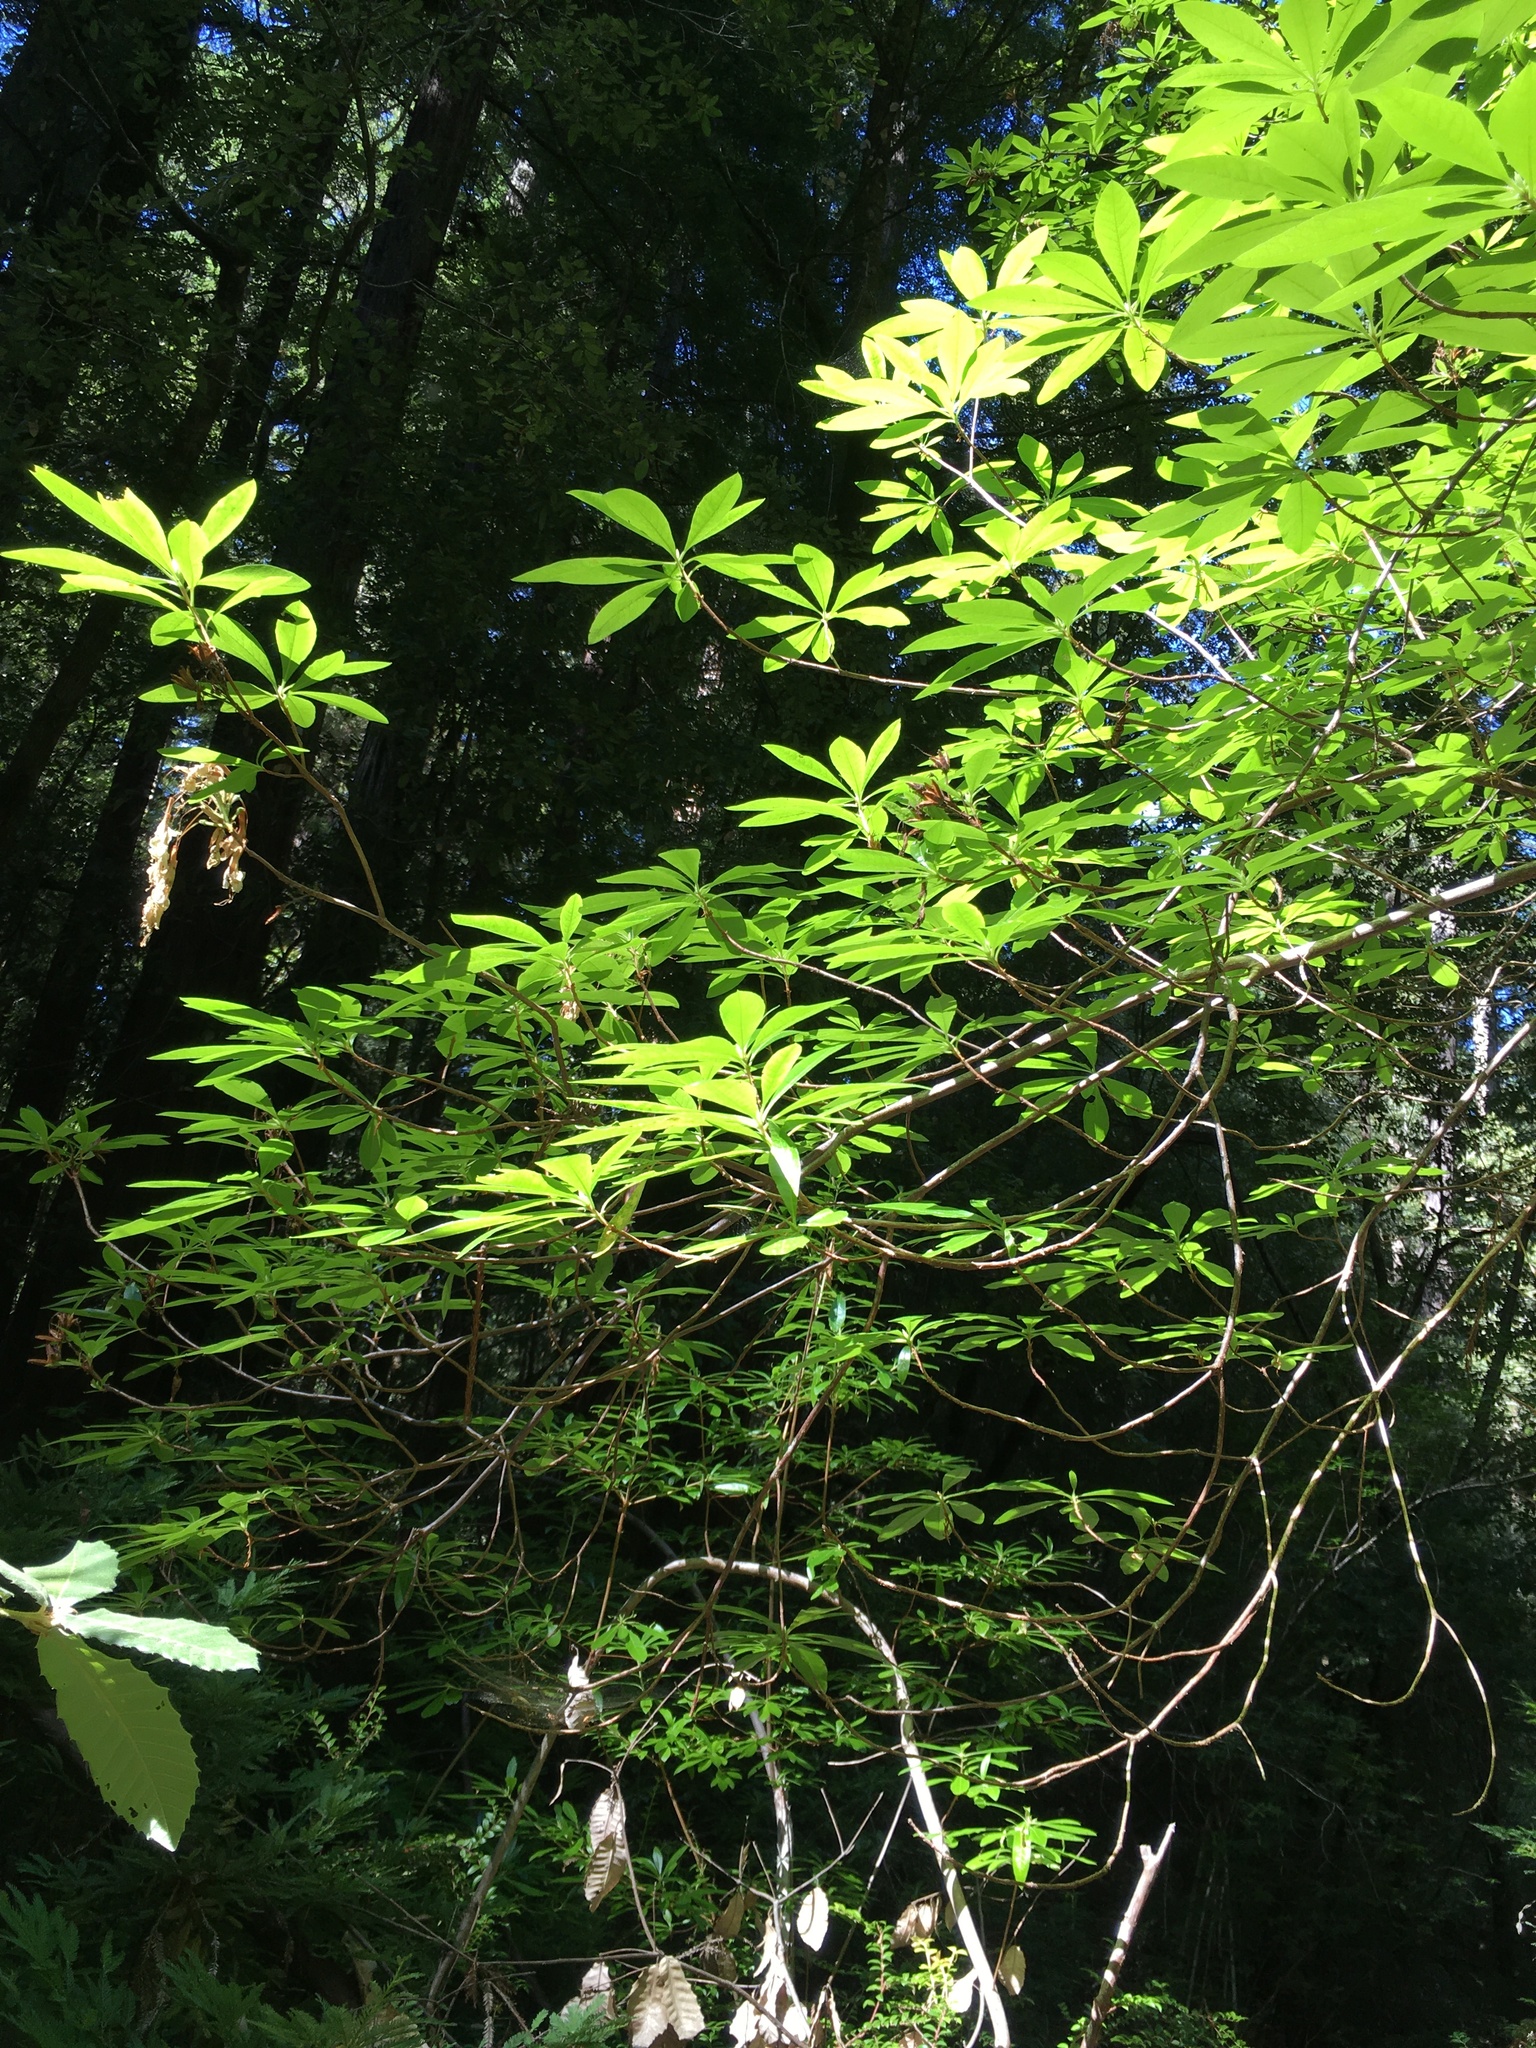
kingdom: Plantae
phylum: Tracheophyta
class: Magnoliopsida
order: Ericales
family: Ericaceae
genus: Rhododendron
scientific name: Rhododendron occidentale
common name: Western azalea
